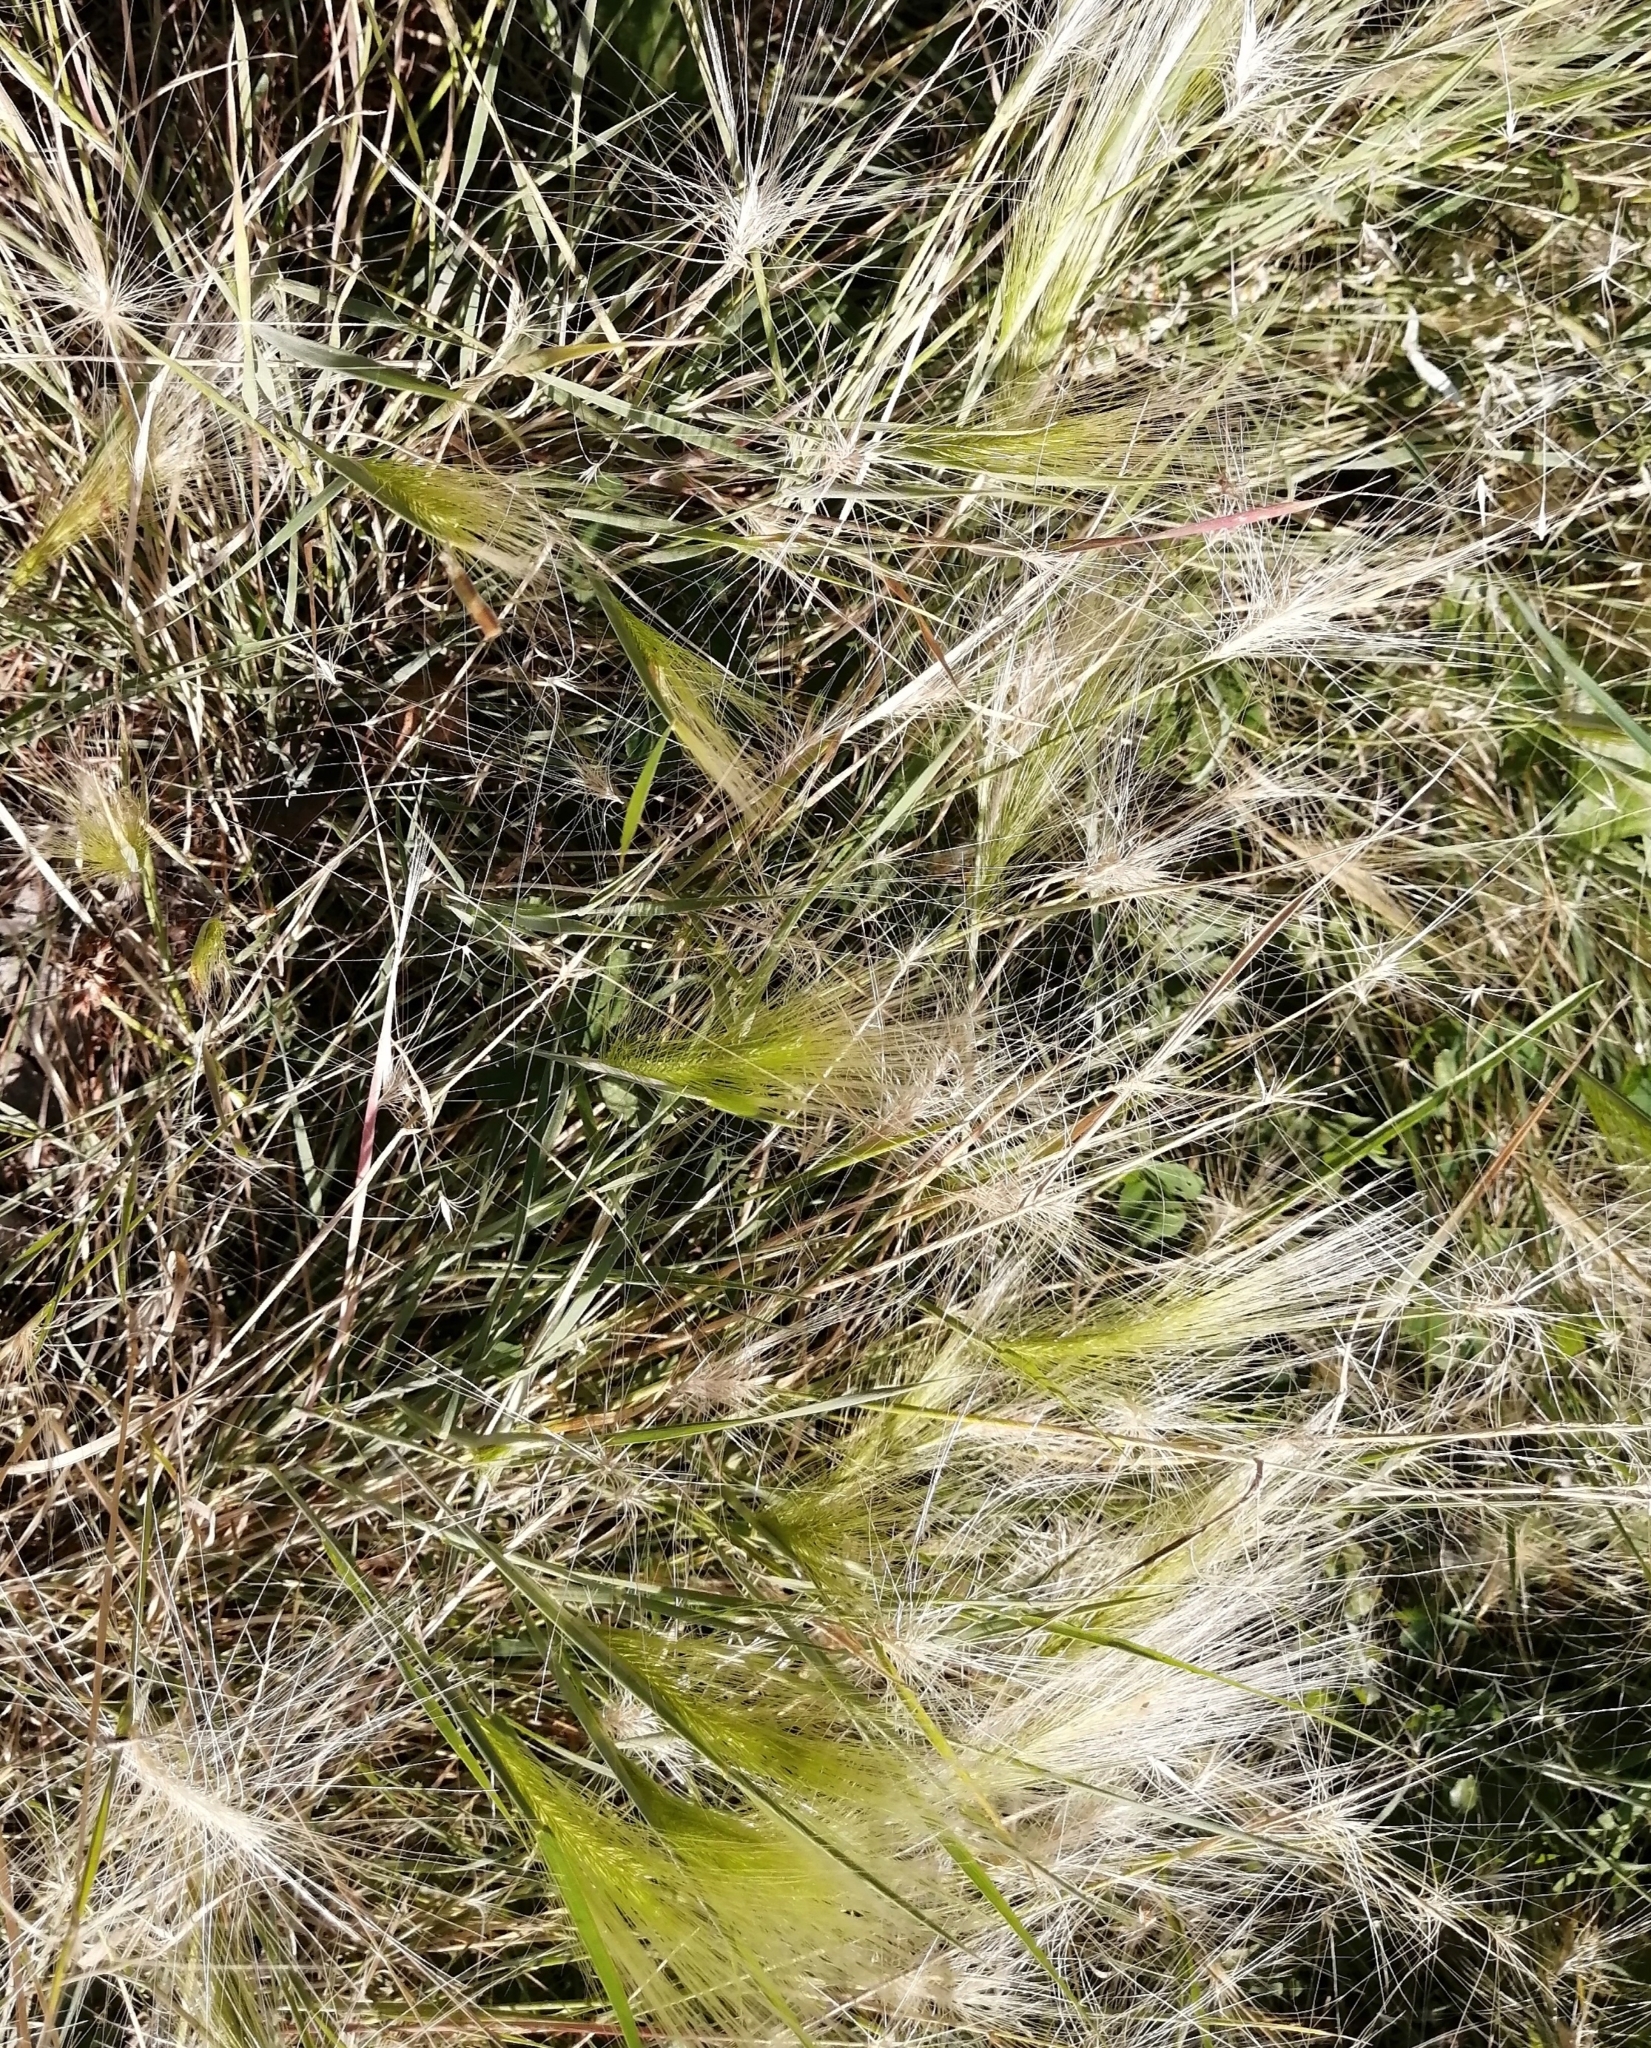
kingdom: Plantae
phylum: Tracheophyta
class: Liliopsida
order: Poales
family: Poaceae
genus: Hordeum
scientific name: Hordeum jubatum
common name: Foxtail barley
